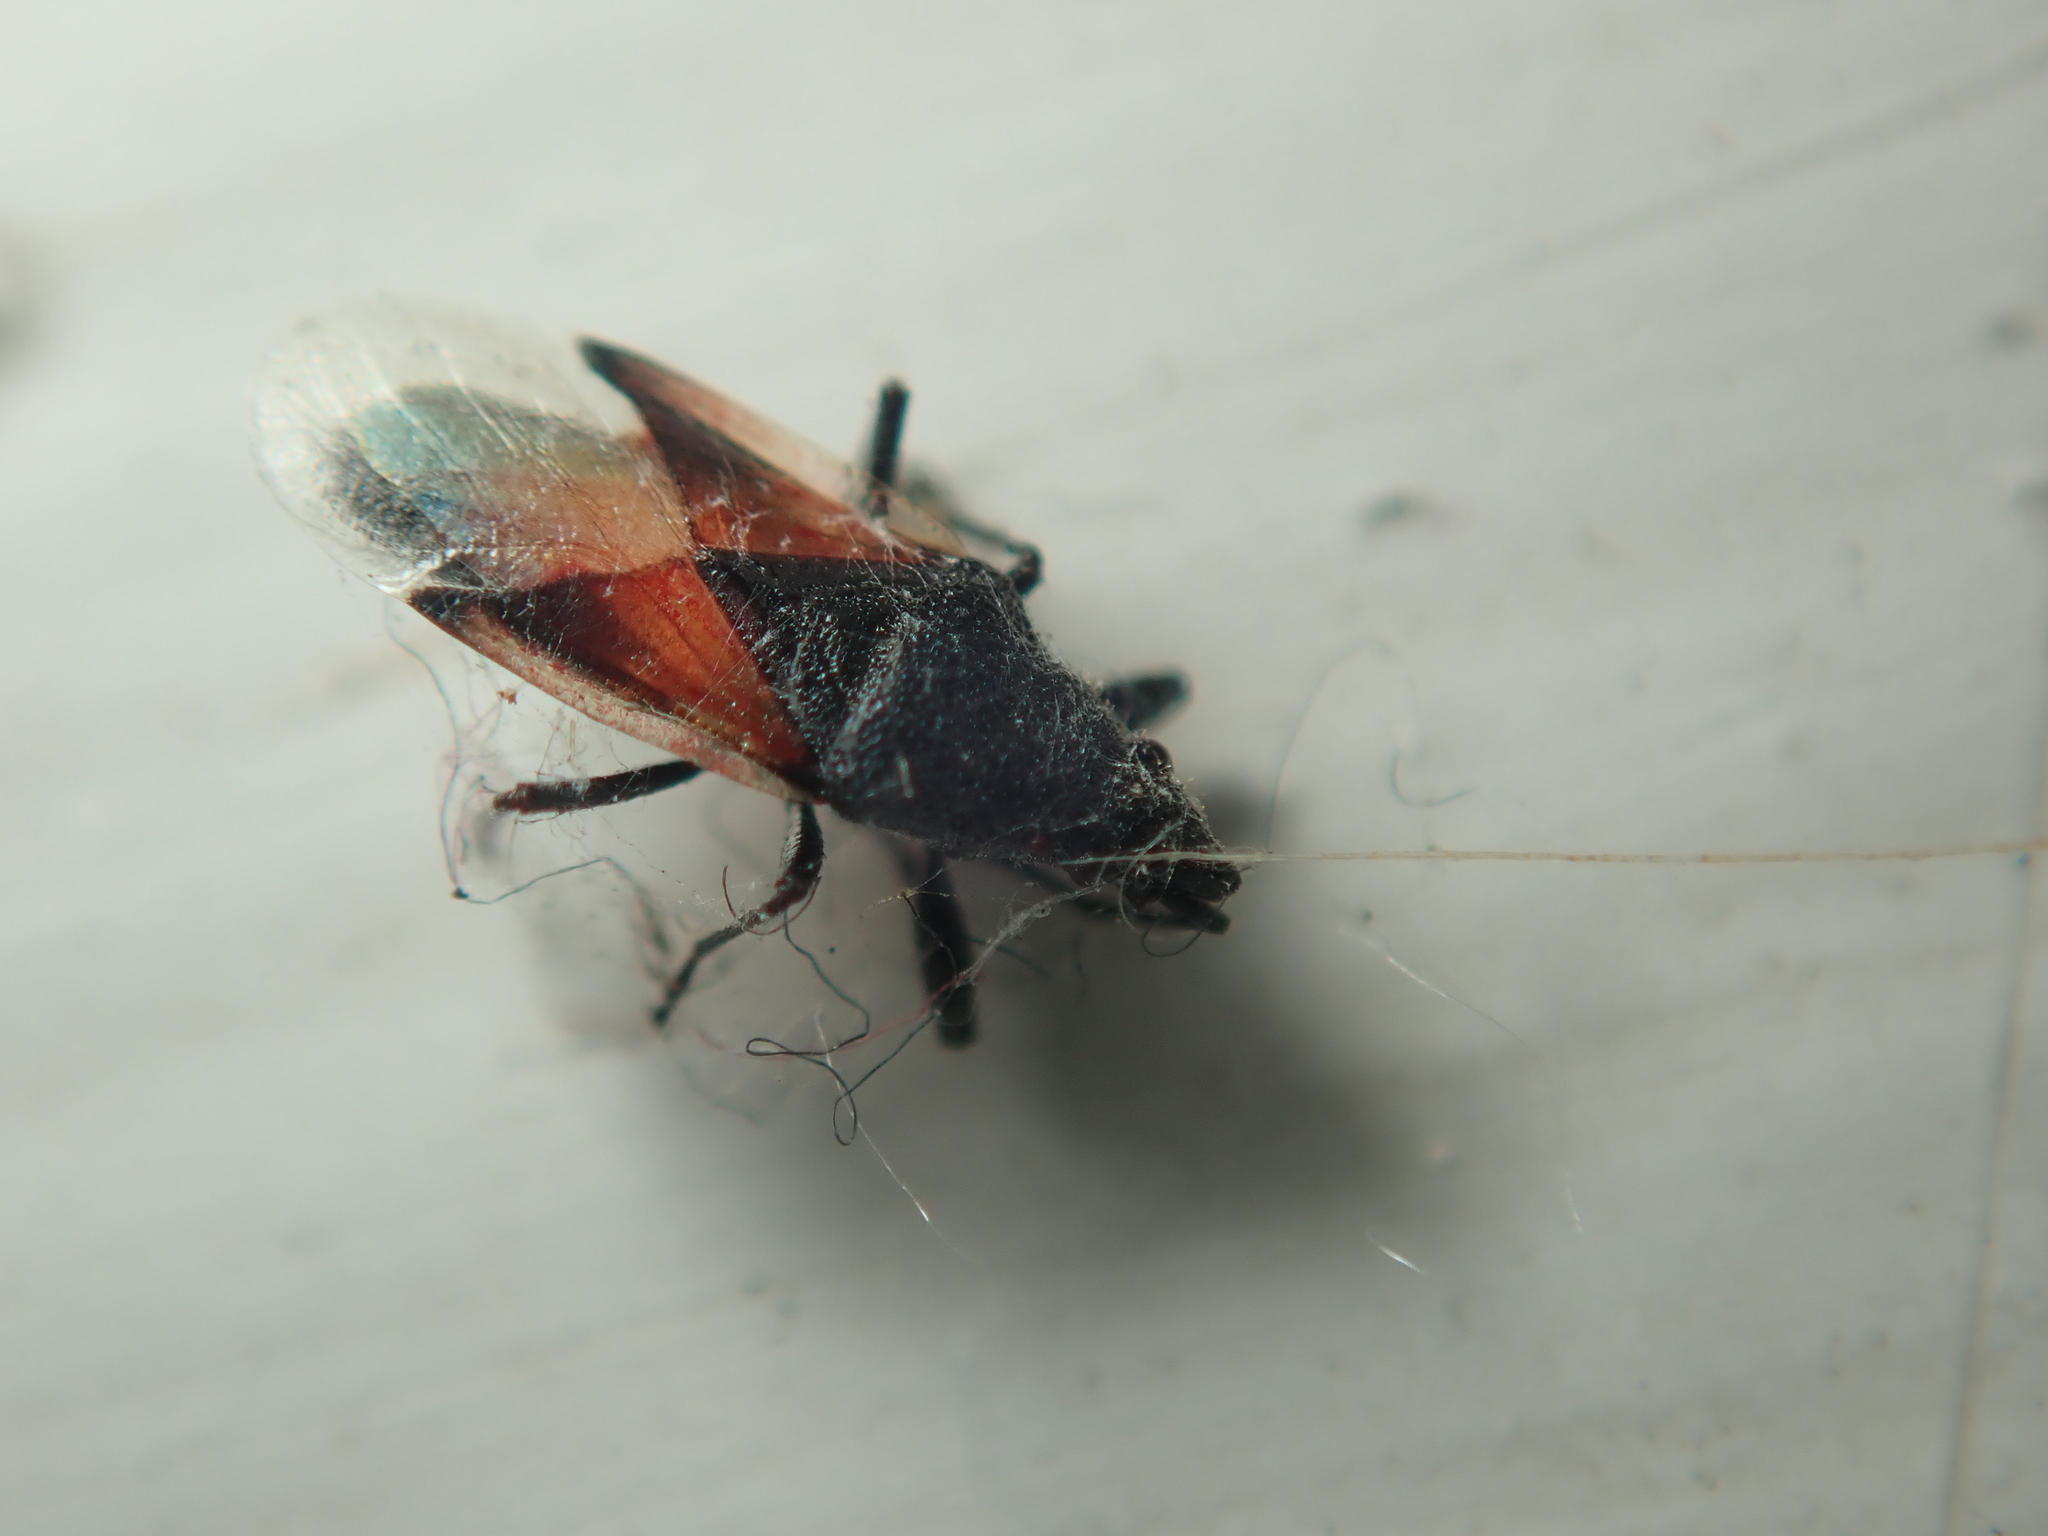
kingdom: Animalia
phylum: Arthropoda
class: Insecta
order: Hemiptera
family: Oxycarenidae
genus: Oxycarenus
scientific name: Oxycarenus lavaterae
